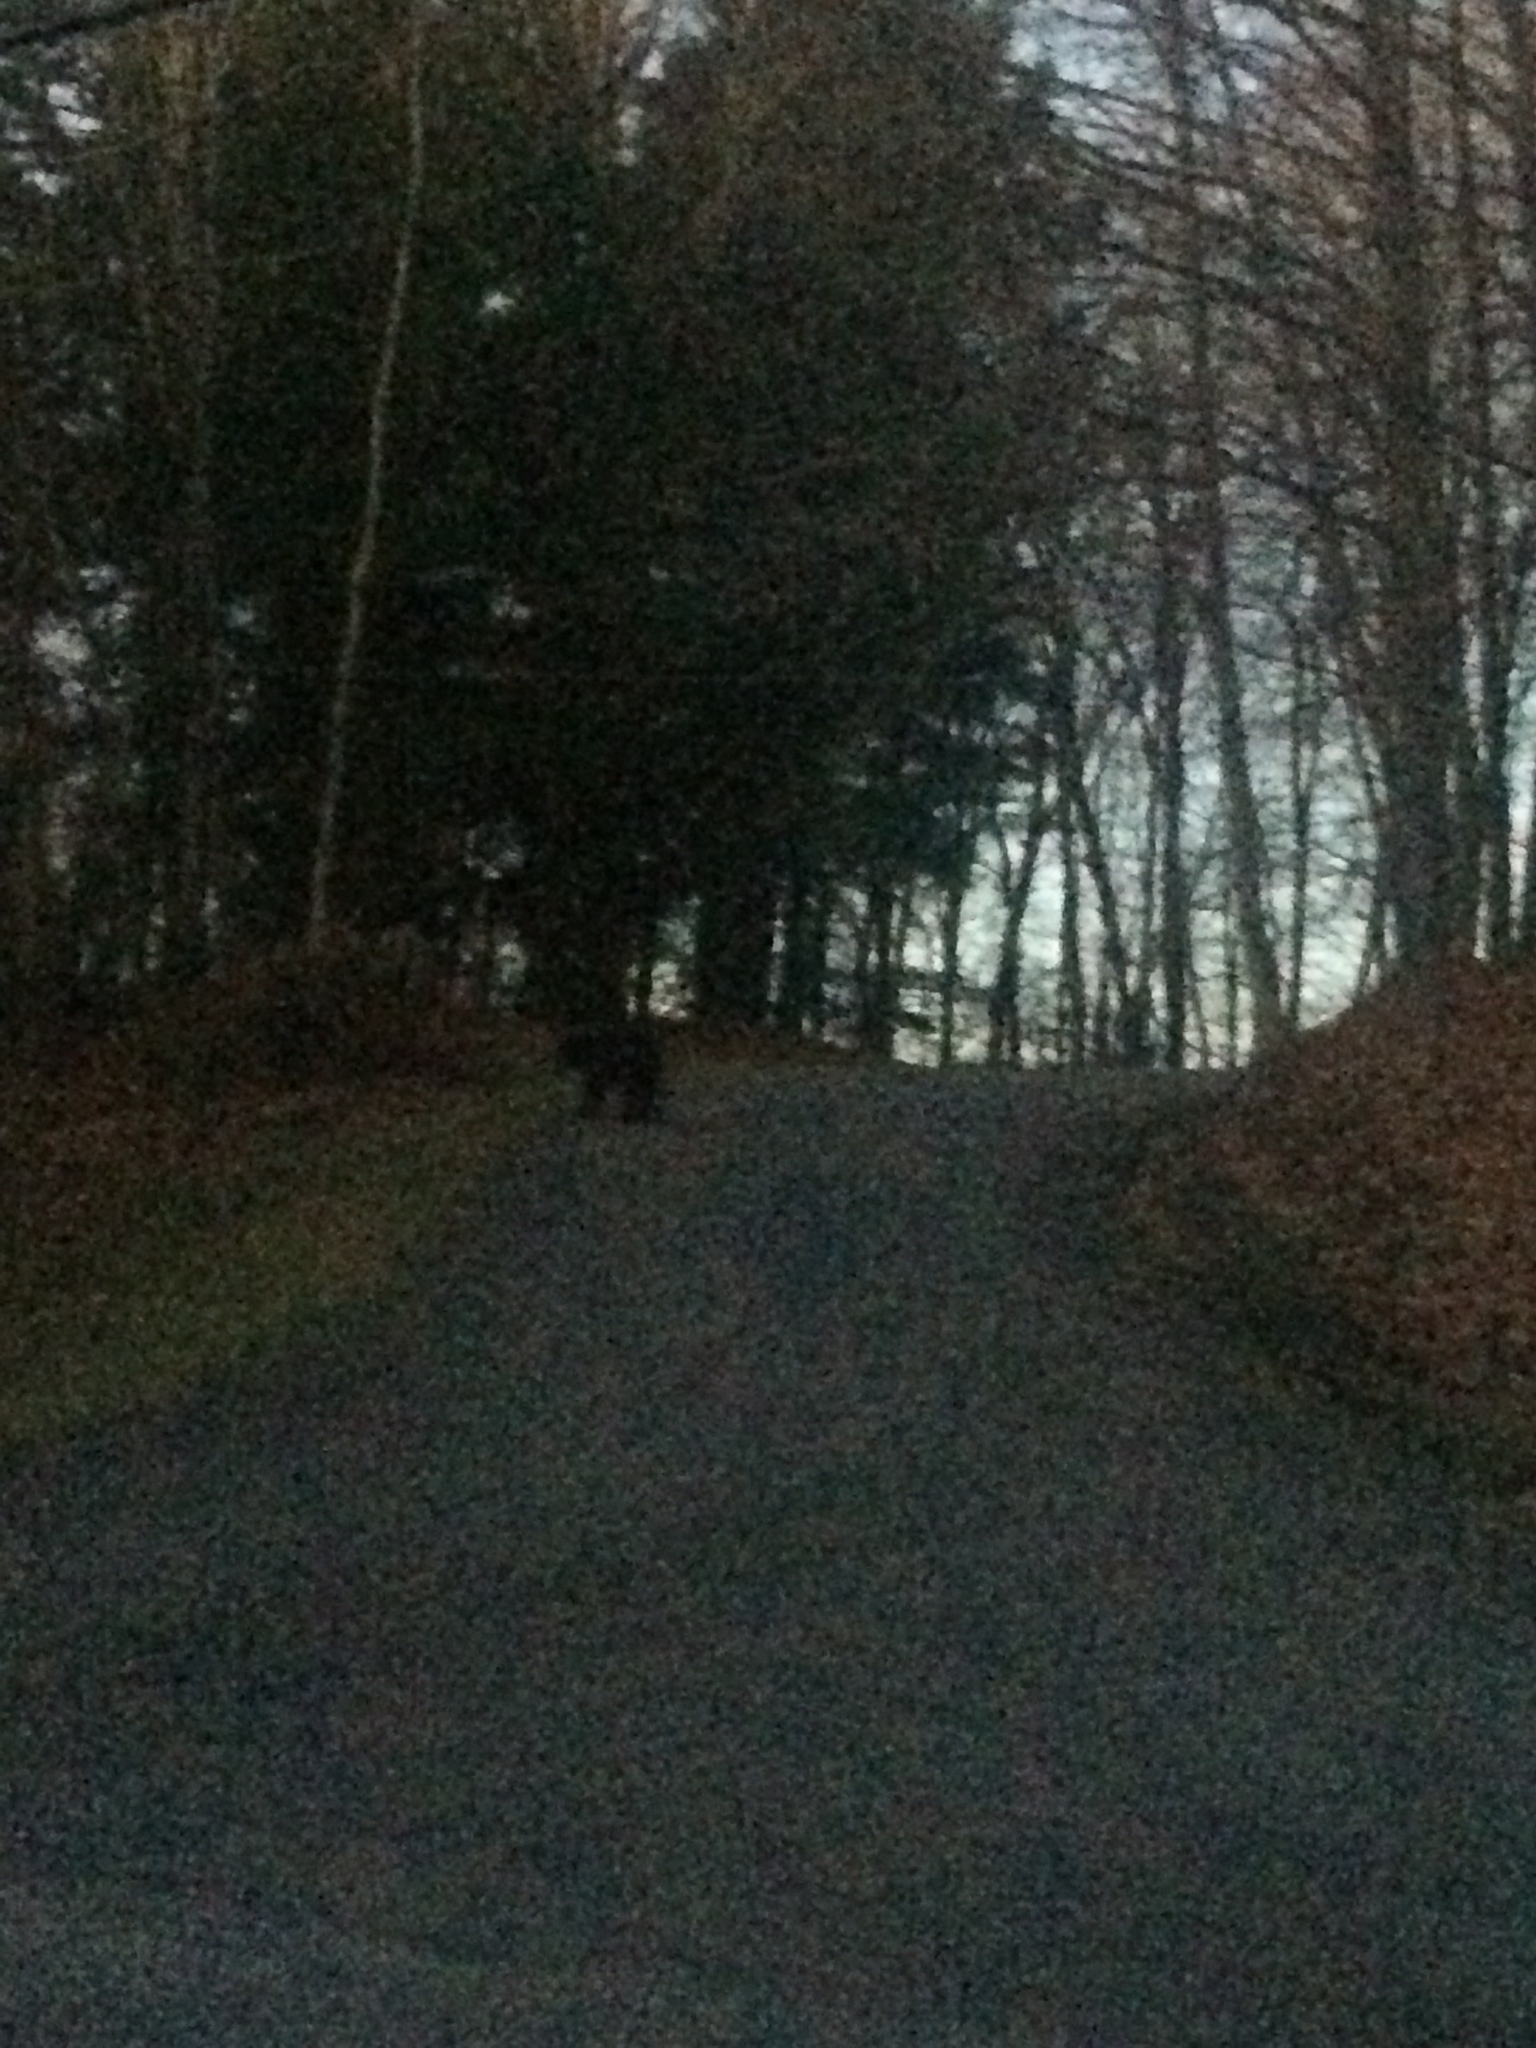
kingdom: Animalia
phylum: Chordata
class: Mammalia
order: Carnivora
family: Ursidae
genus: Ursus
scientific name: Ursus americanus
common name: American black bear
